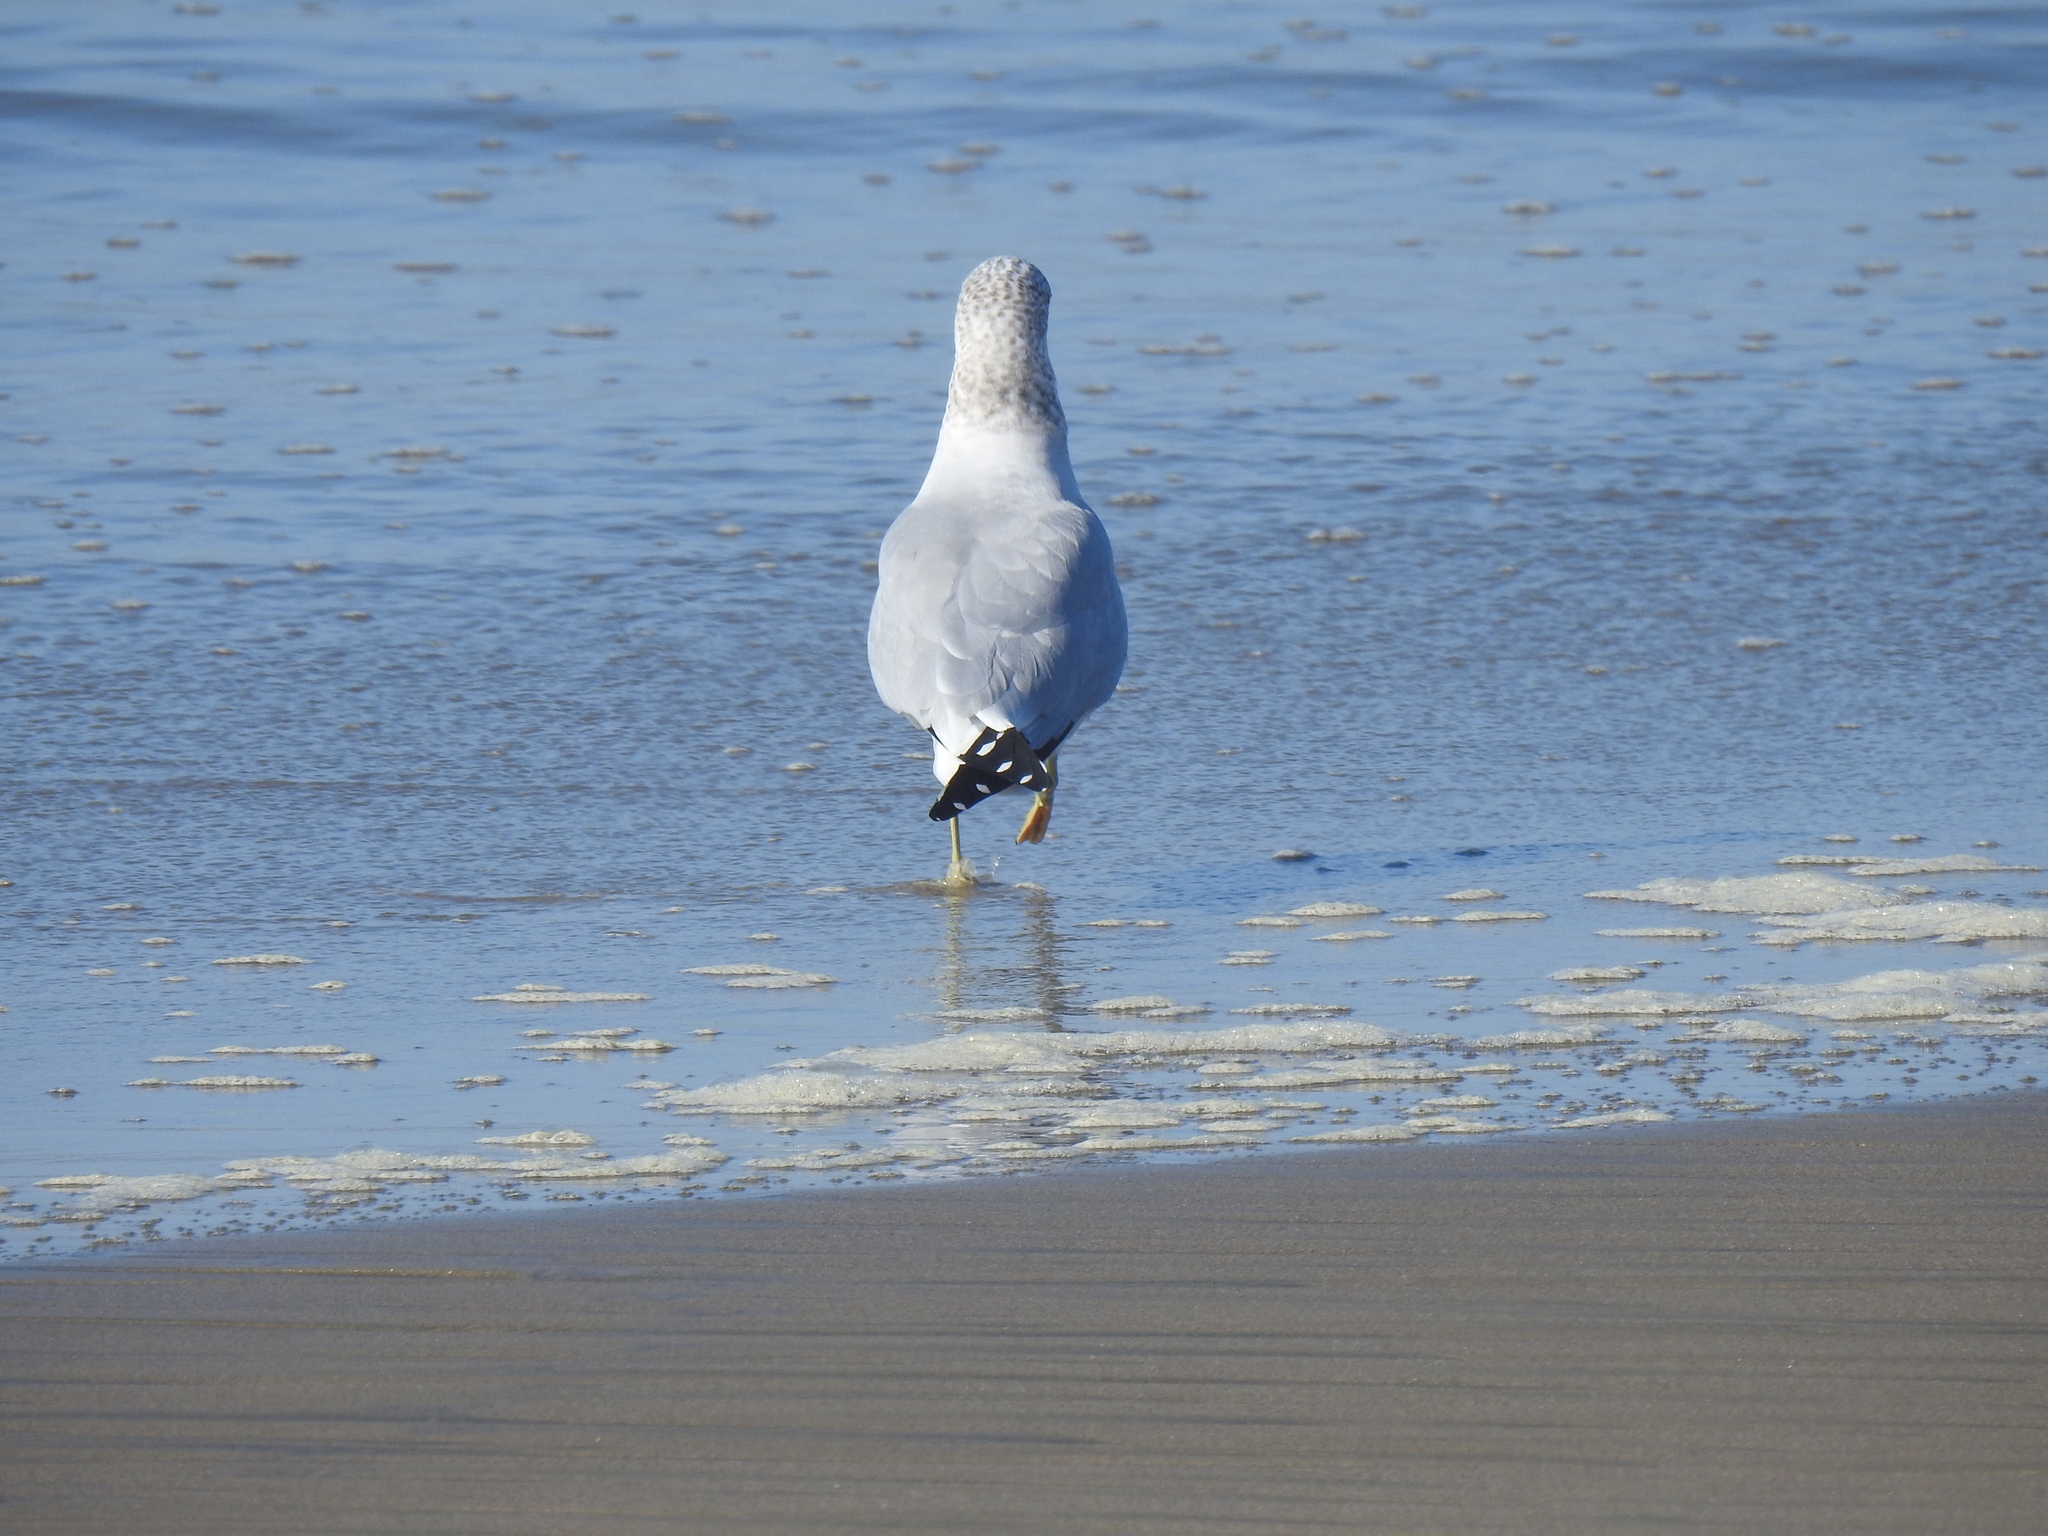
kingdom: Animalia
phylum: Chordata
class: Aves
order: Charadriiformes
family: Laridae
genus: Larus
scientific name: Larus delawarensis
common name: Ring-billed gull
